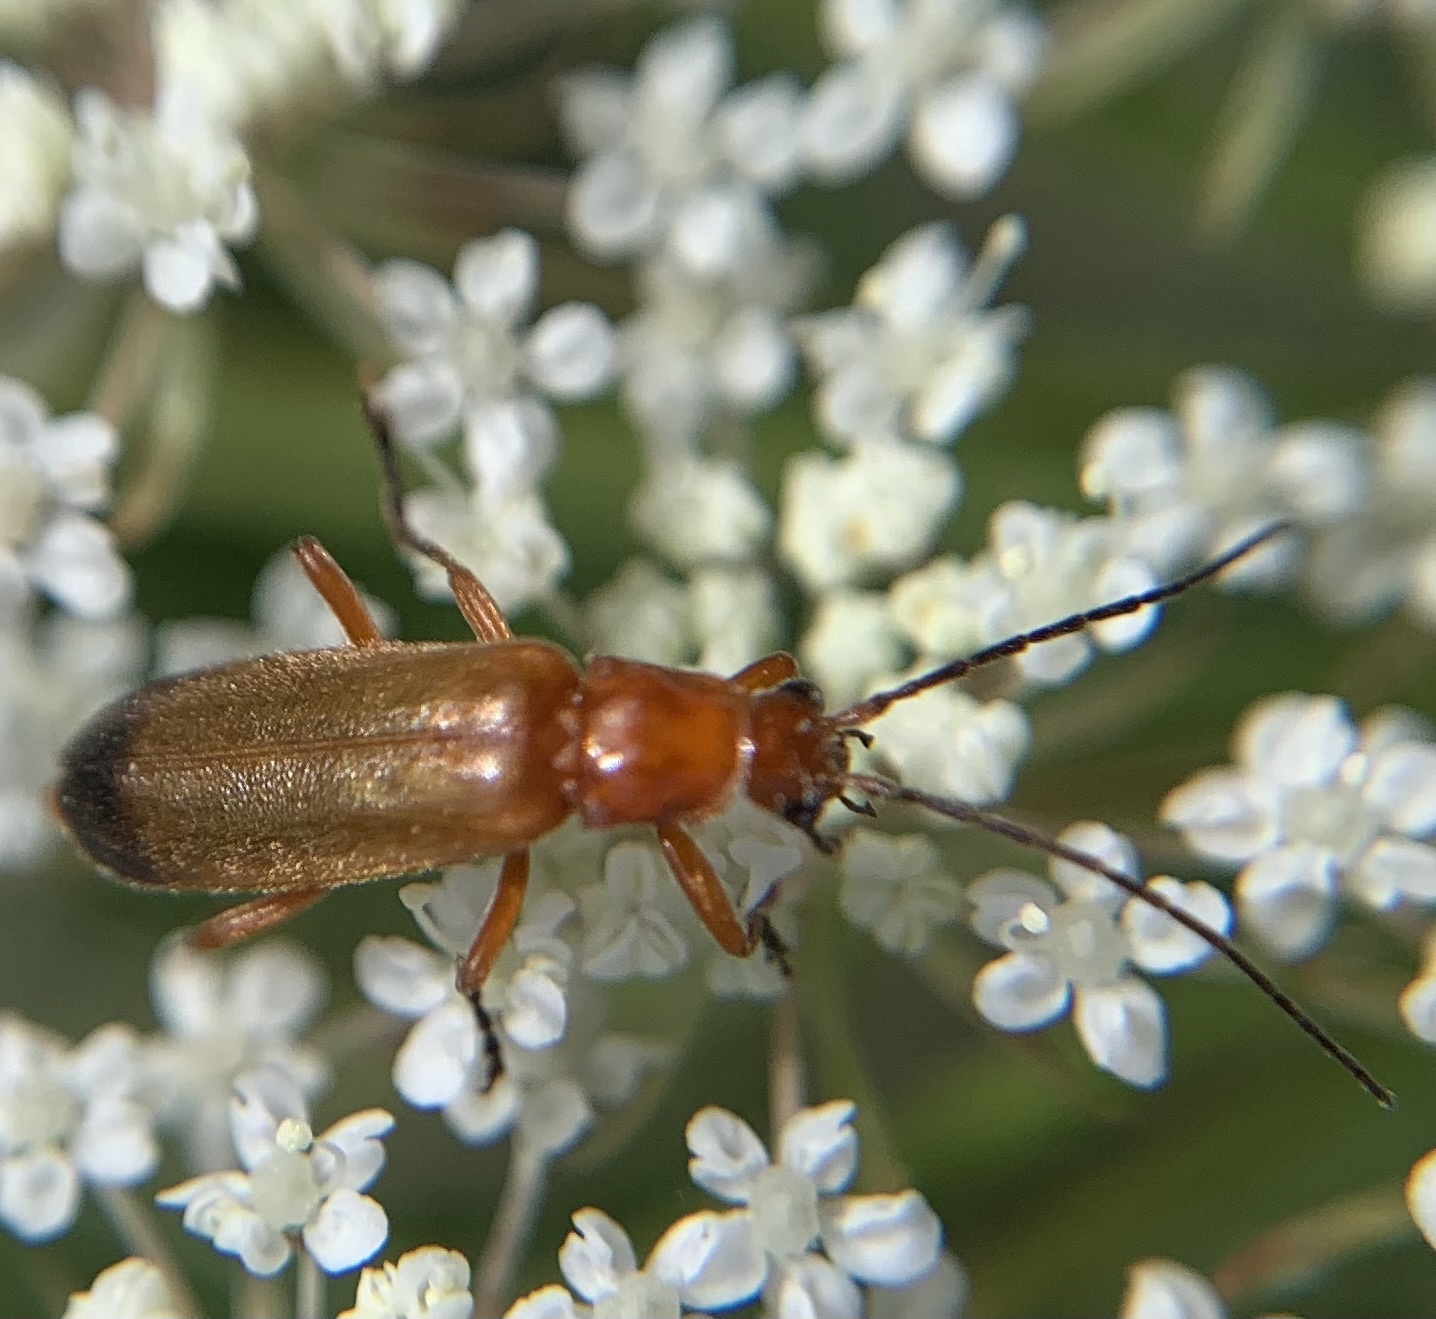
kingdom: Animalia
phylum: Arthropoda
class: Insecta
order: Coleoptera
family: Cantharidae
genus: Rhagonycha
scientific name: Rhagonycha fulva
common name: Common red soldier beetle
